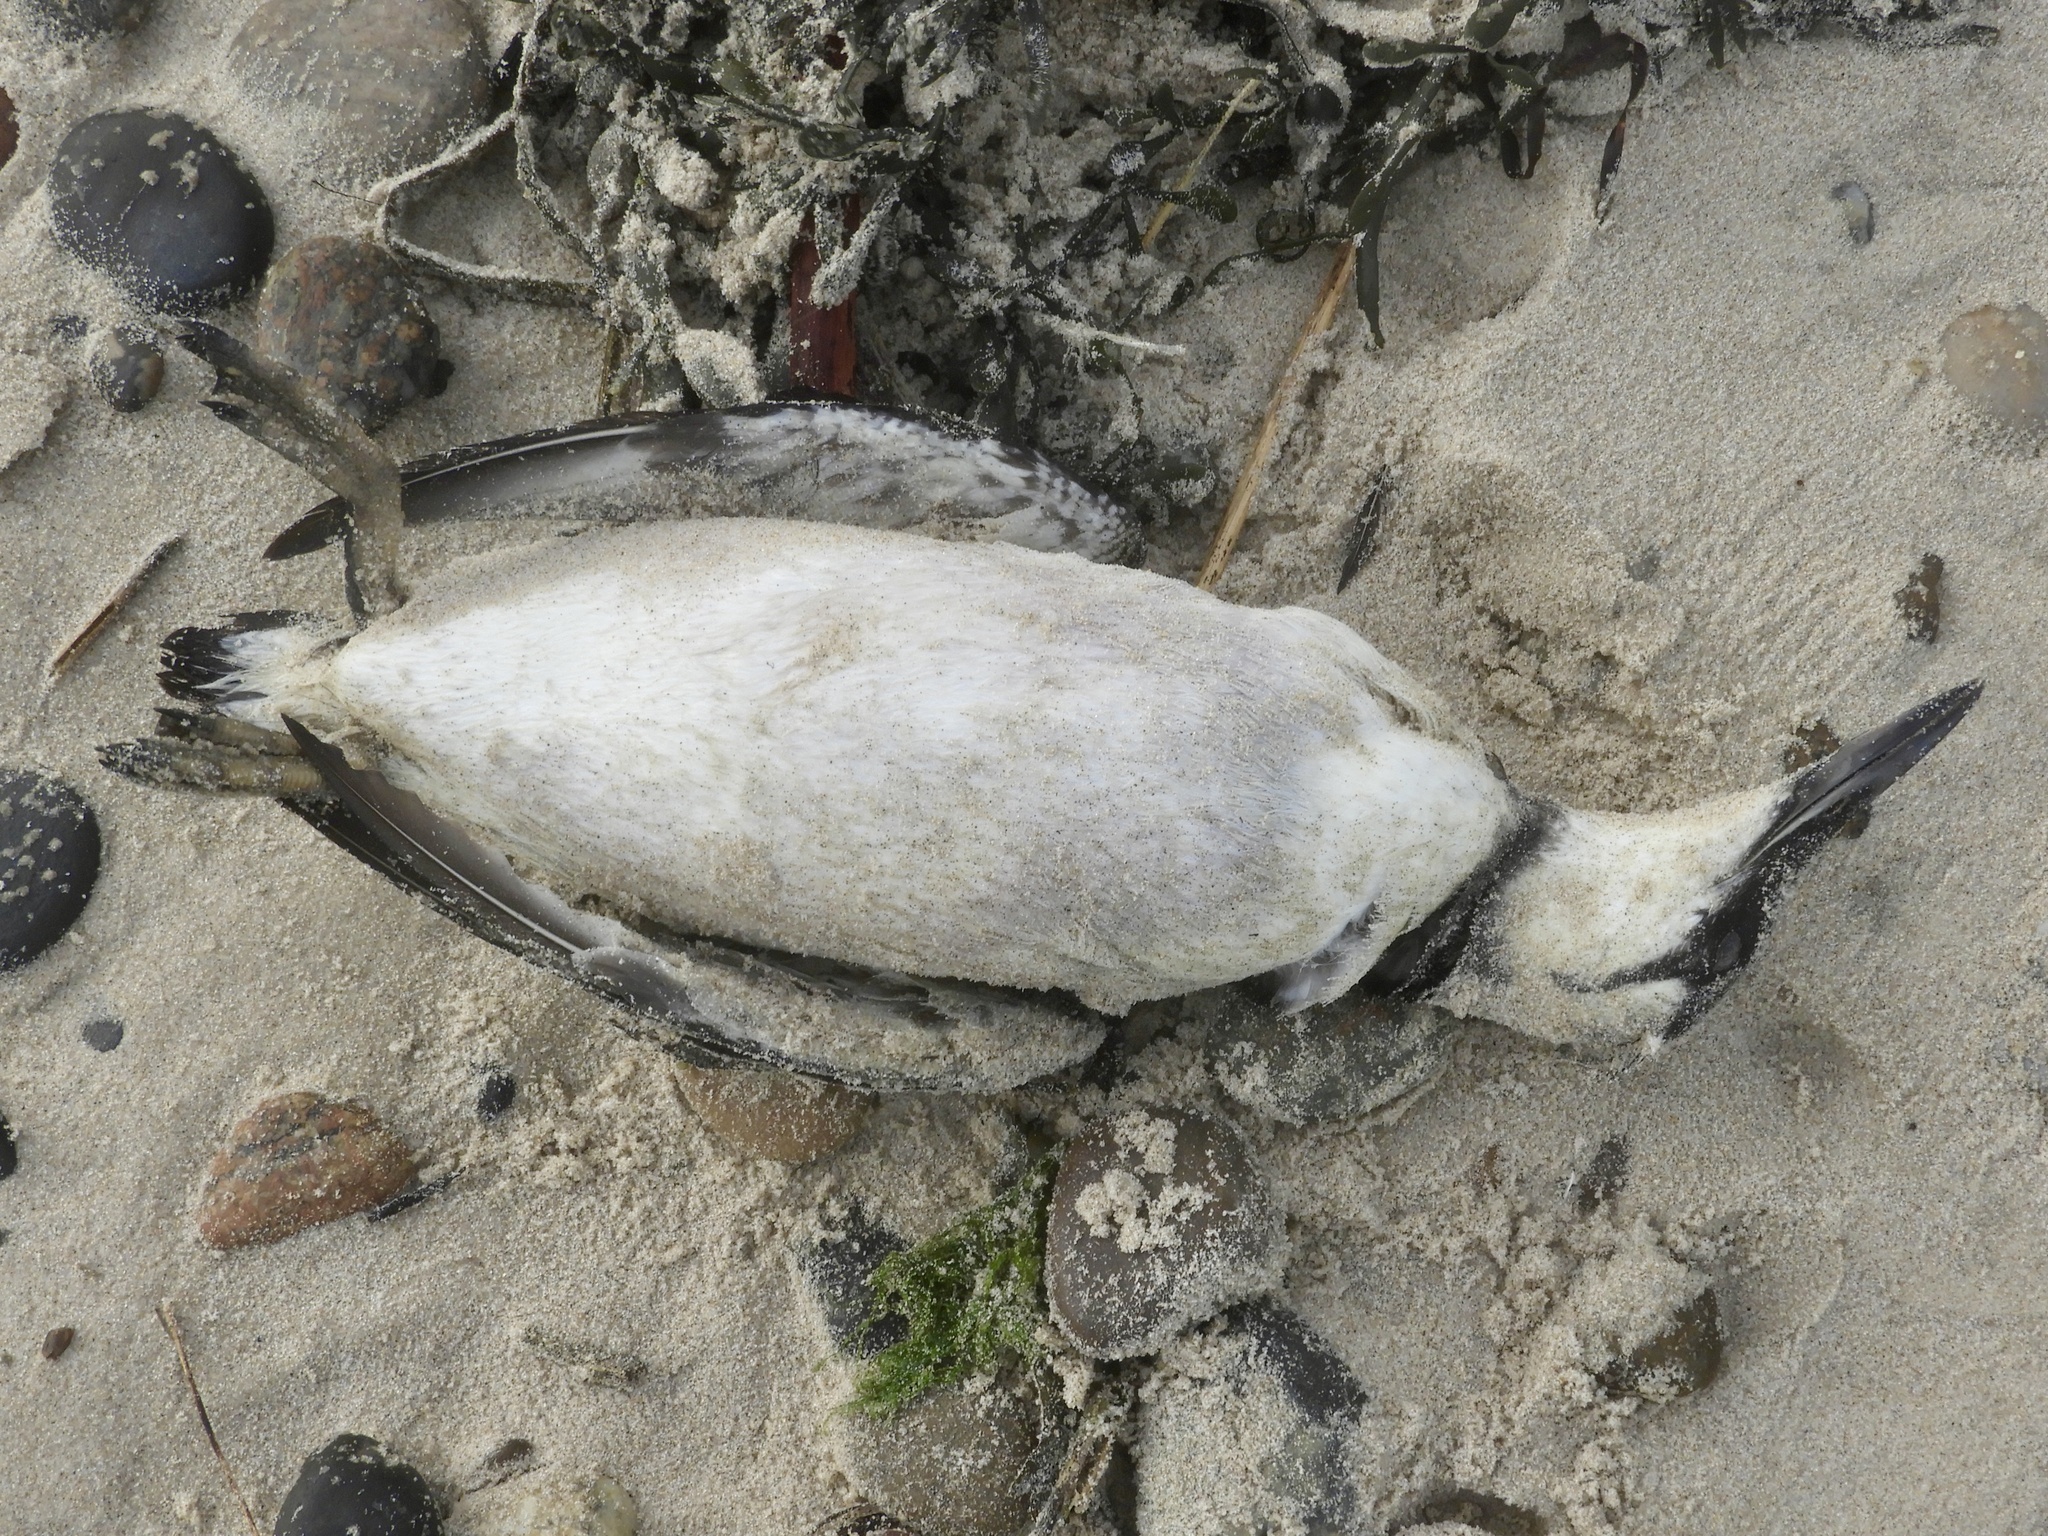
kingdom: Animalia
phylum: Chordata
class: Aves
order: Charadriiformes
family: Alcidae
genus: Uria
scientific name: Uria aalge
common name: Common murre
